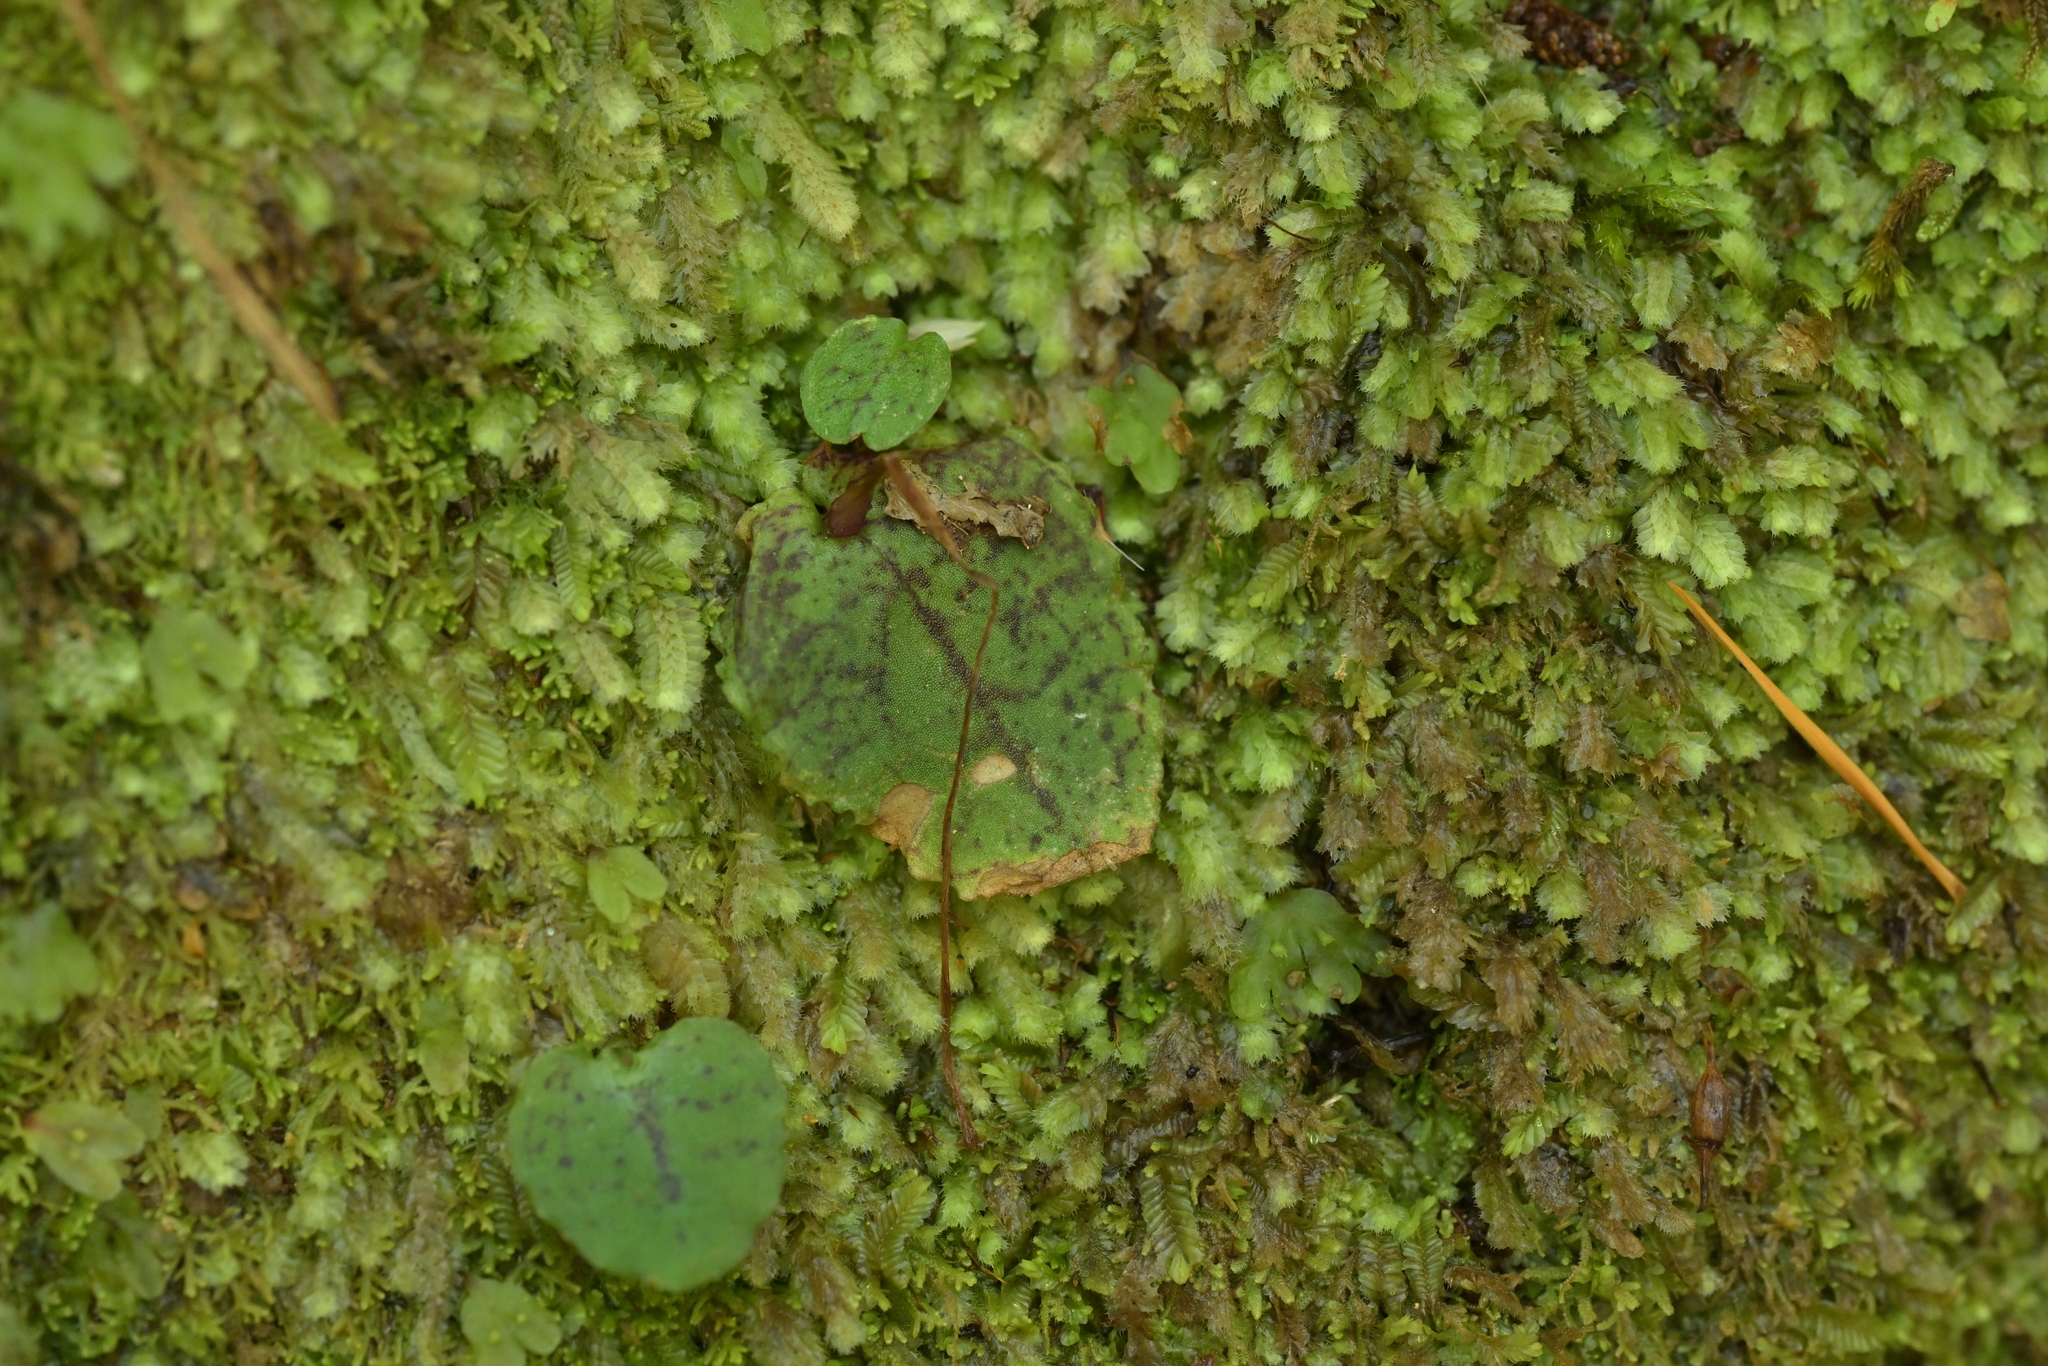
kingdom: Plantae
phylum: Tracheophyta
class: Liliopsida
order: Asparagales
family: Orchidaceae
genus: Corybas
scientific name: Corybas oblongus
